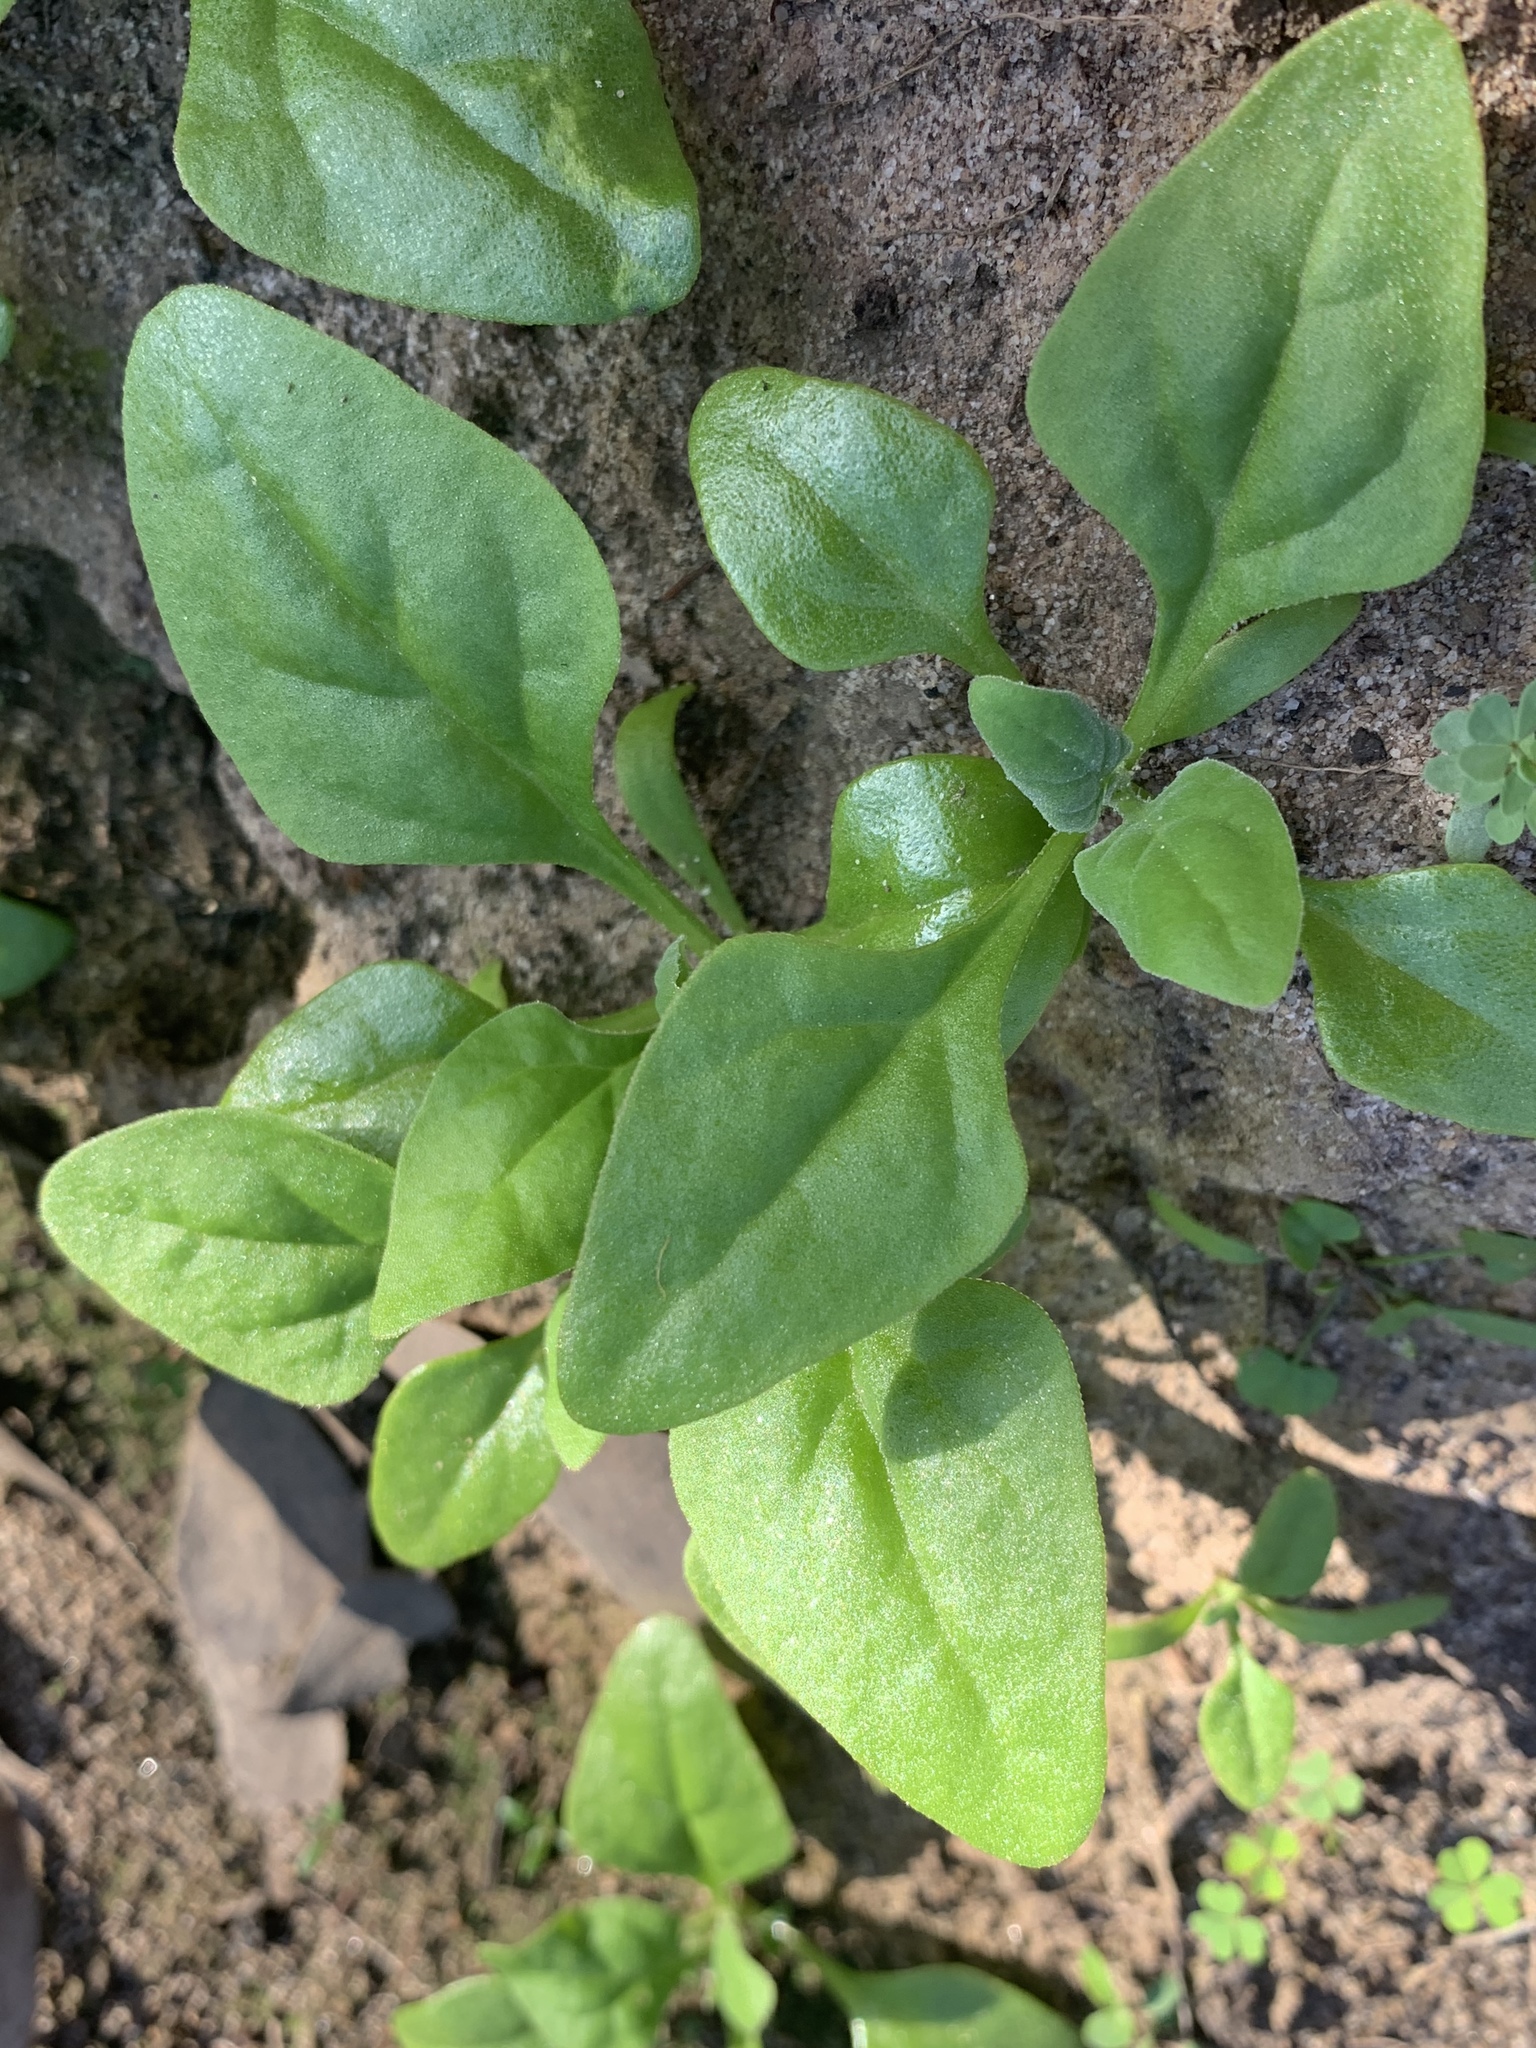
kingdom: Plantae
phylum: Tracheophyta
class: Magnoliopsida
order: Caryophyllales
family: Aizoaceae
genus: Tetragonia
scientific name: Tetragonia tetragonoides
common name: New zealand-spinach
